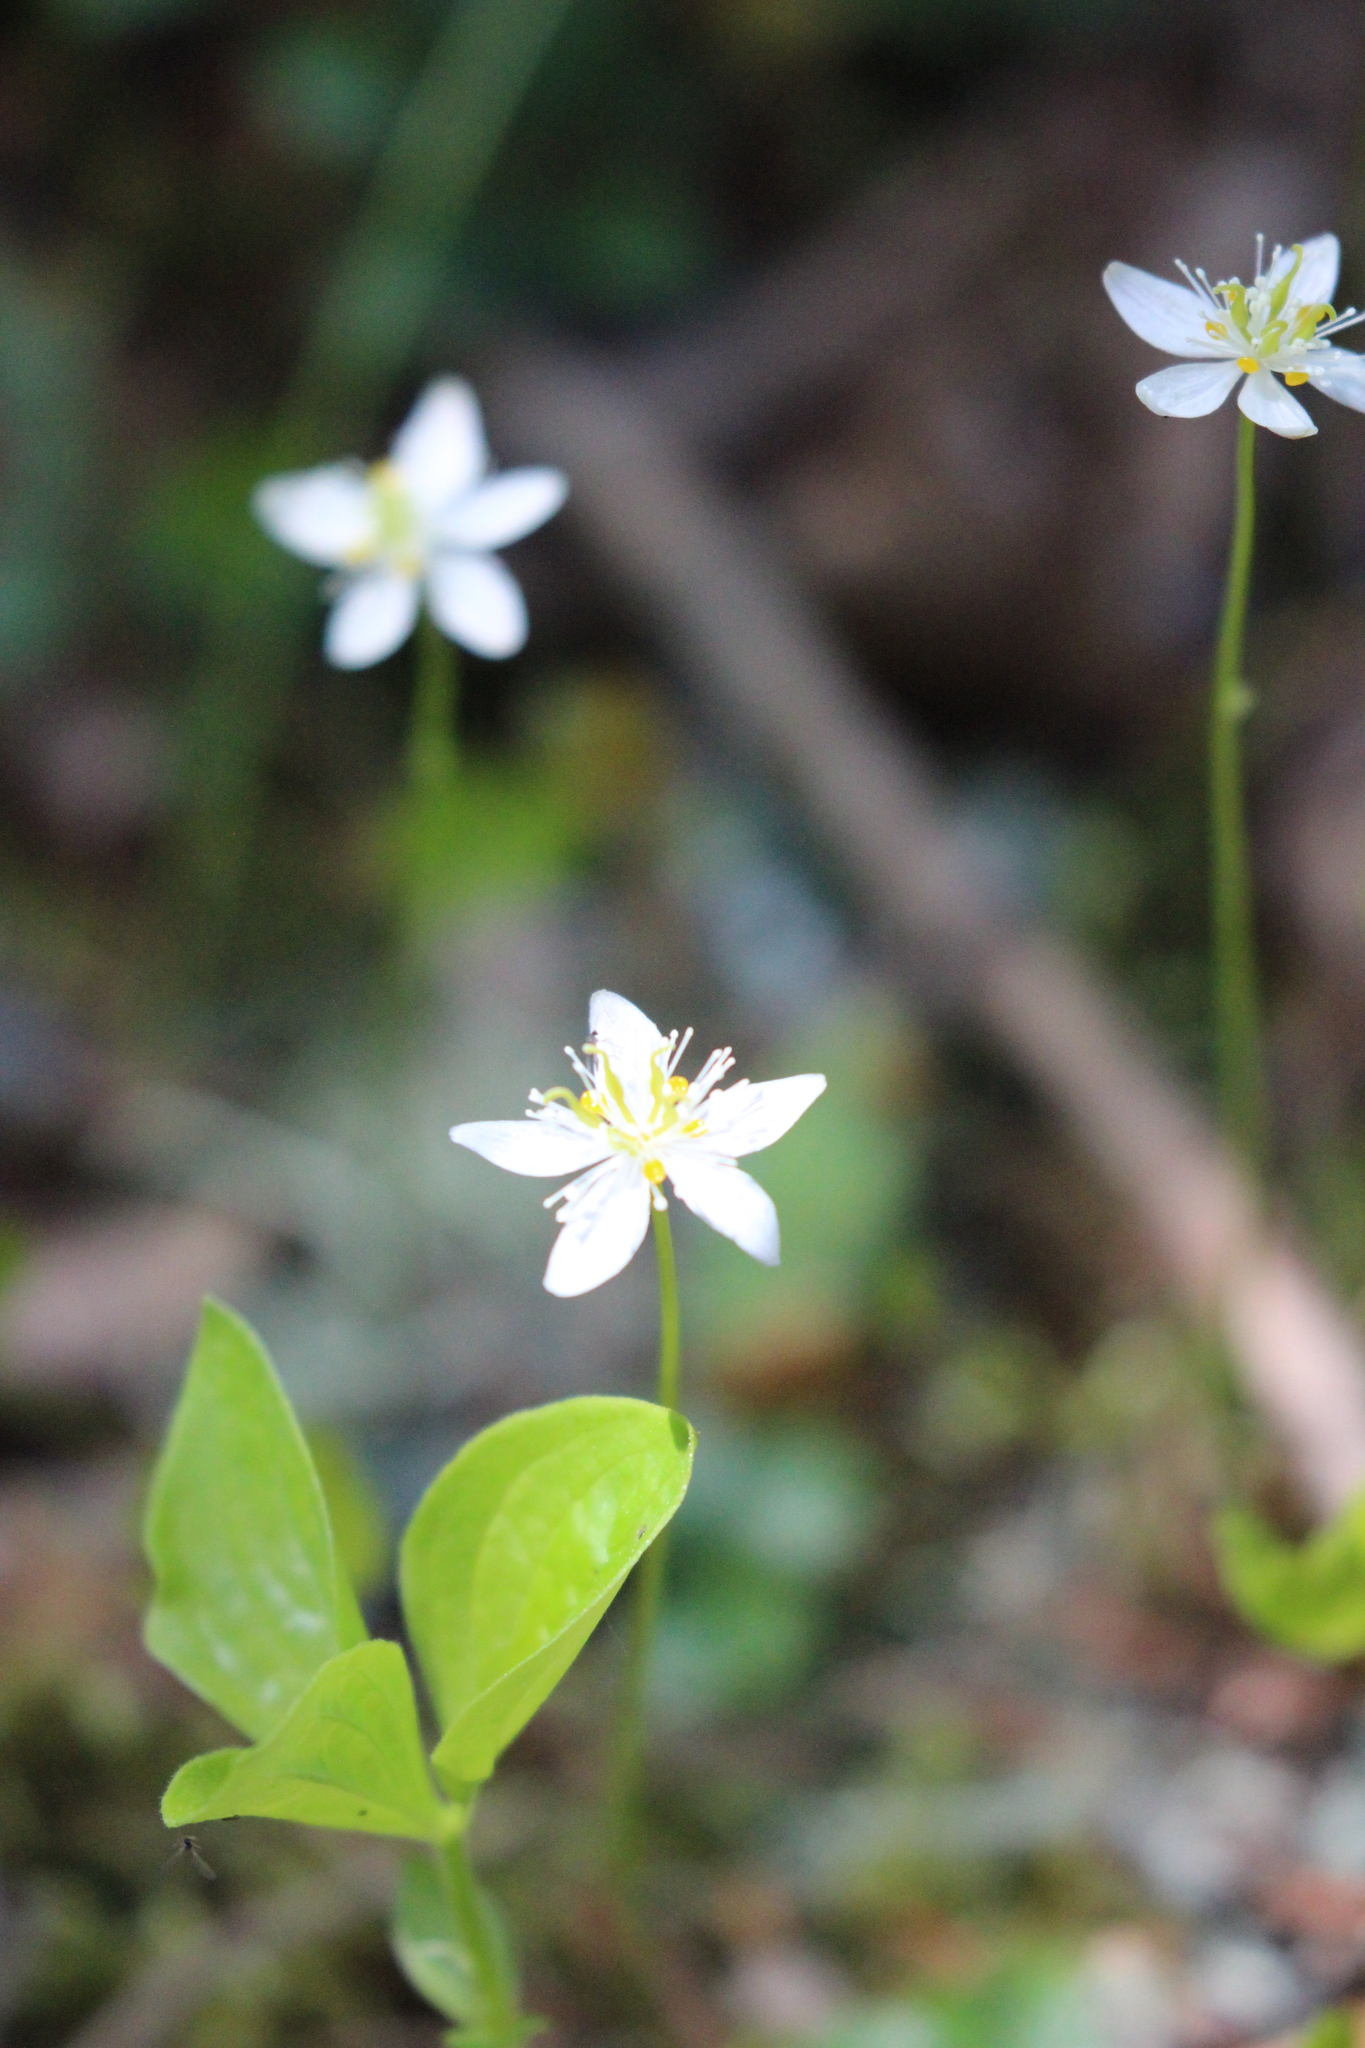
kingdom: Plantae
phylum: Tracheophyta
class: Magnoliopsida
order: Ranunculales
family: Ranunculaceae
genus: Coptis
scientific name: Coptis trifolia
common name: Canker-root
